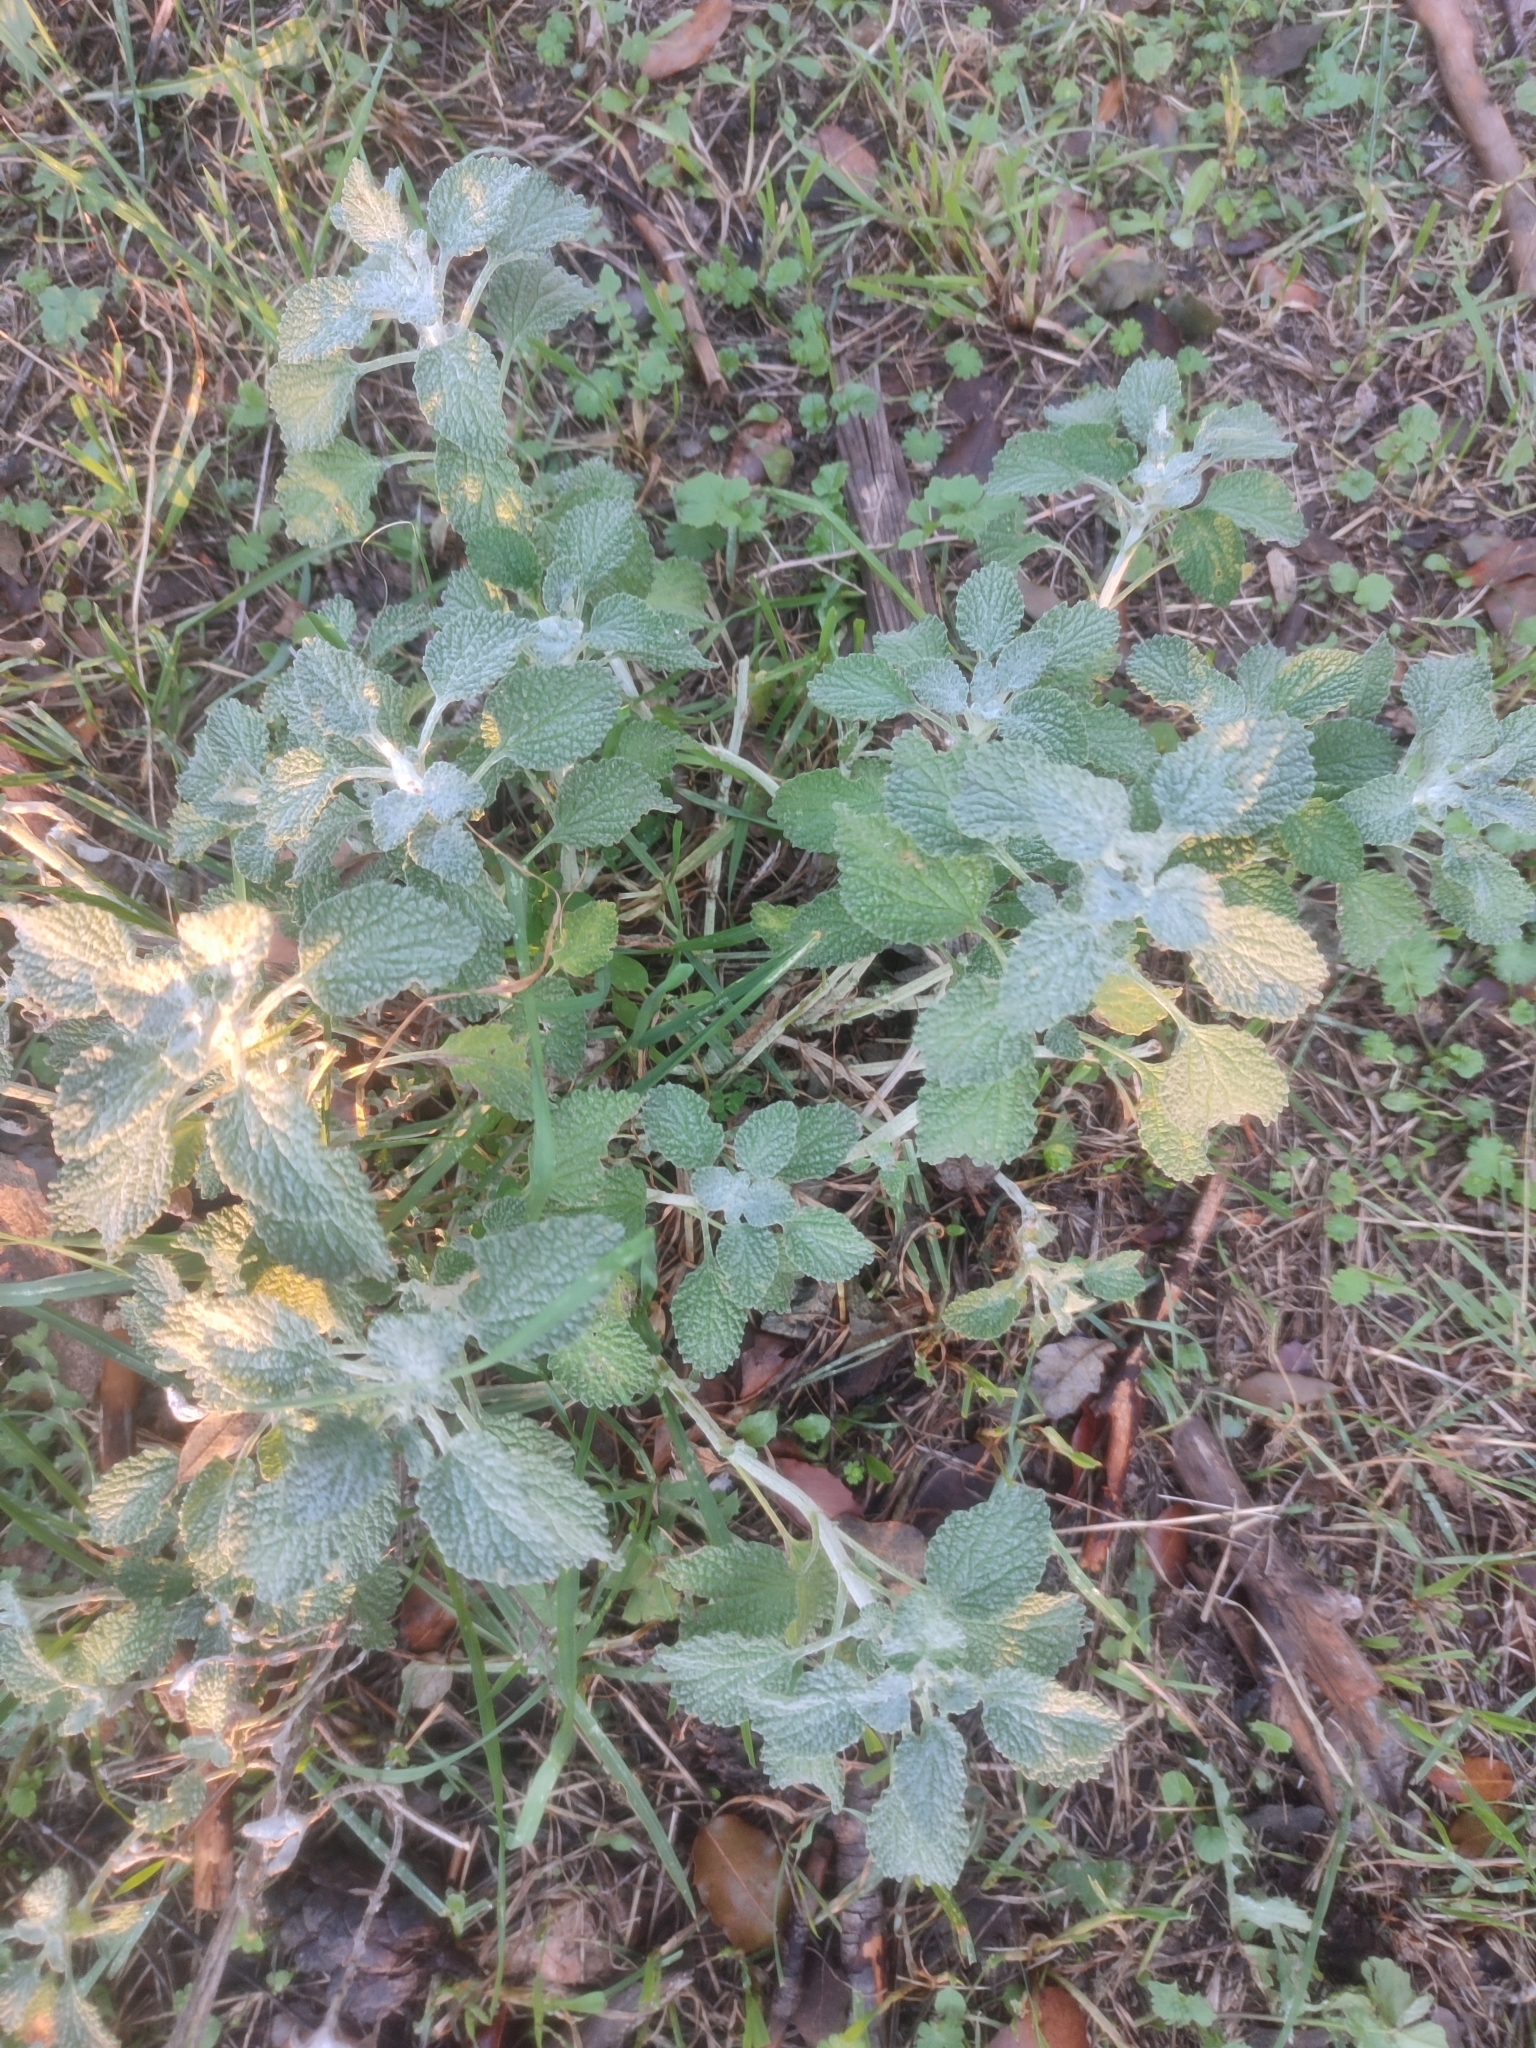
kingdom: Plantae
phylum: Tracheophyta
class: Magnoliopsida
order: Lamiales
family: Lamiaceae
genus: Marrubium
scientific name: Marrubium vulgare
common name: Horehound
